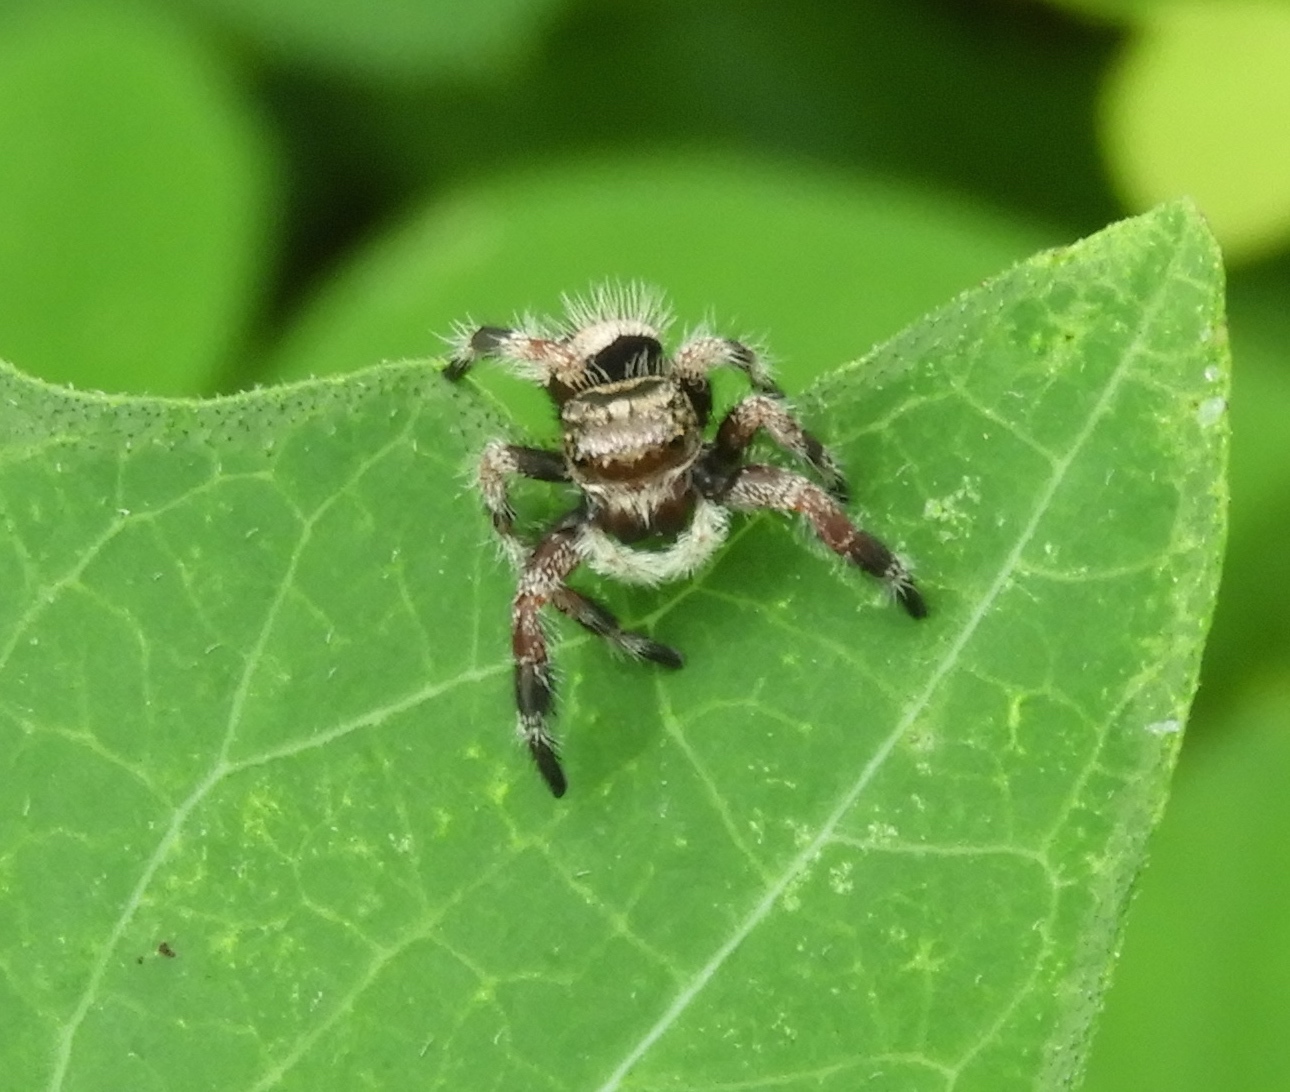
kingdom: Animalia
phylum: Arthropoda
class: Arachnida
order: Araneae
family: Salticidae
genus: Phidippus
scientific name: Phidippus maddisoni
